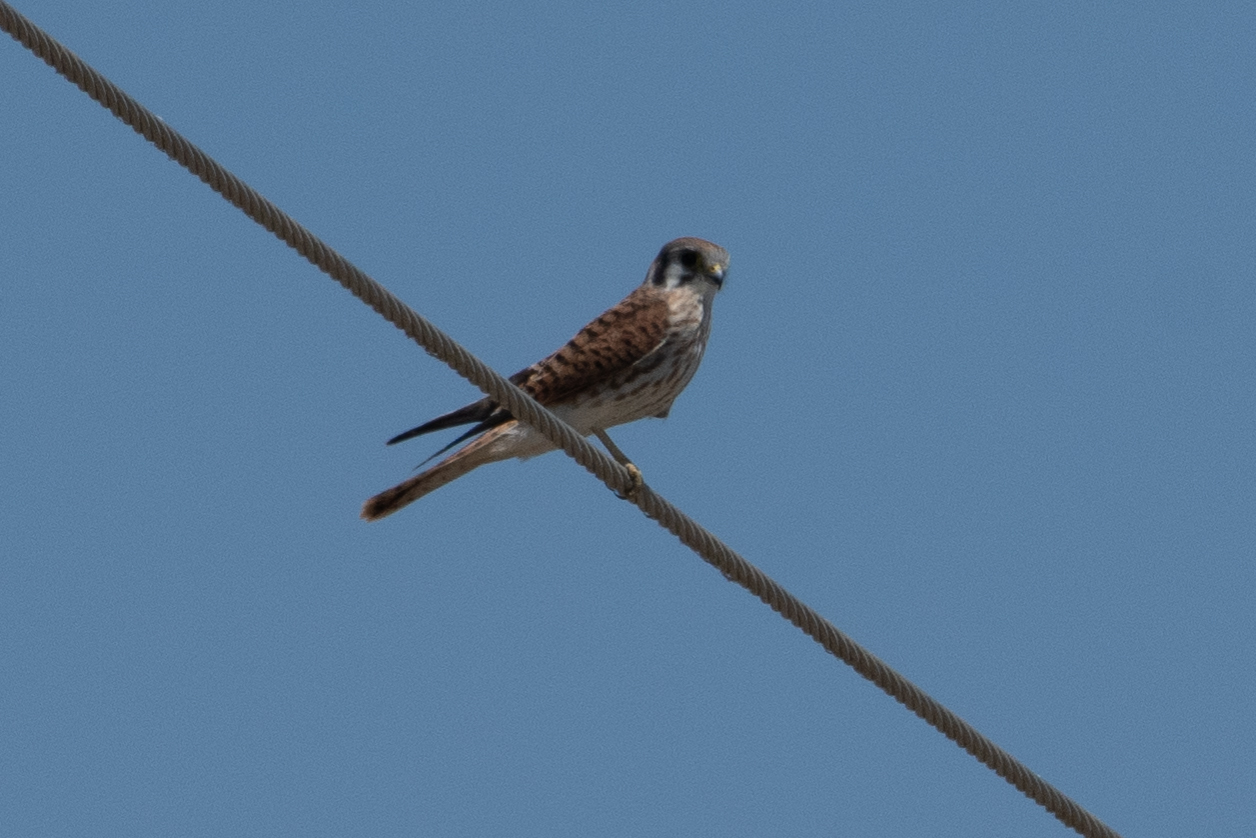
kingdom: Animalia
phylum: Chordata
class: Aves
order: Falconiformes
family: Falconidae
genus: Falco
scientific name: Falco sparverius
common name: American kestrel
